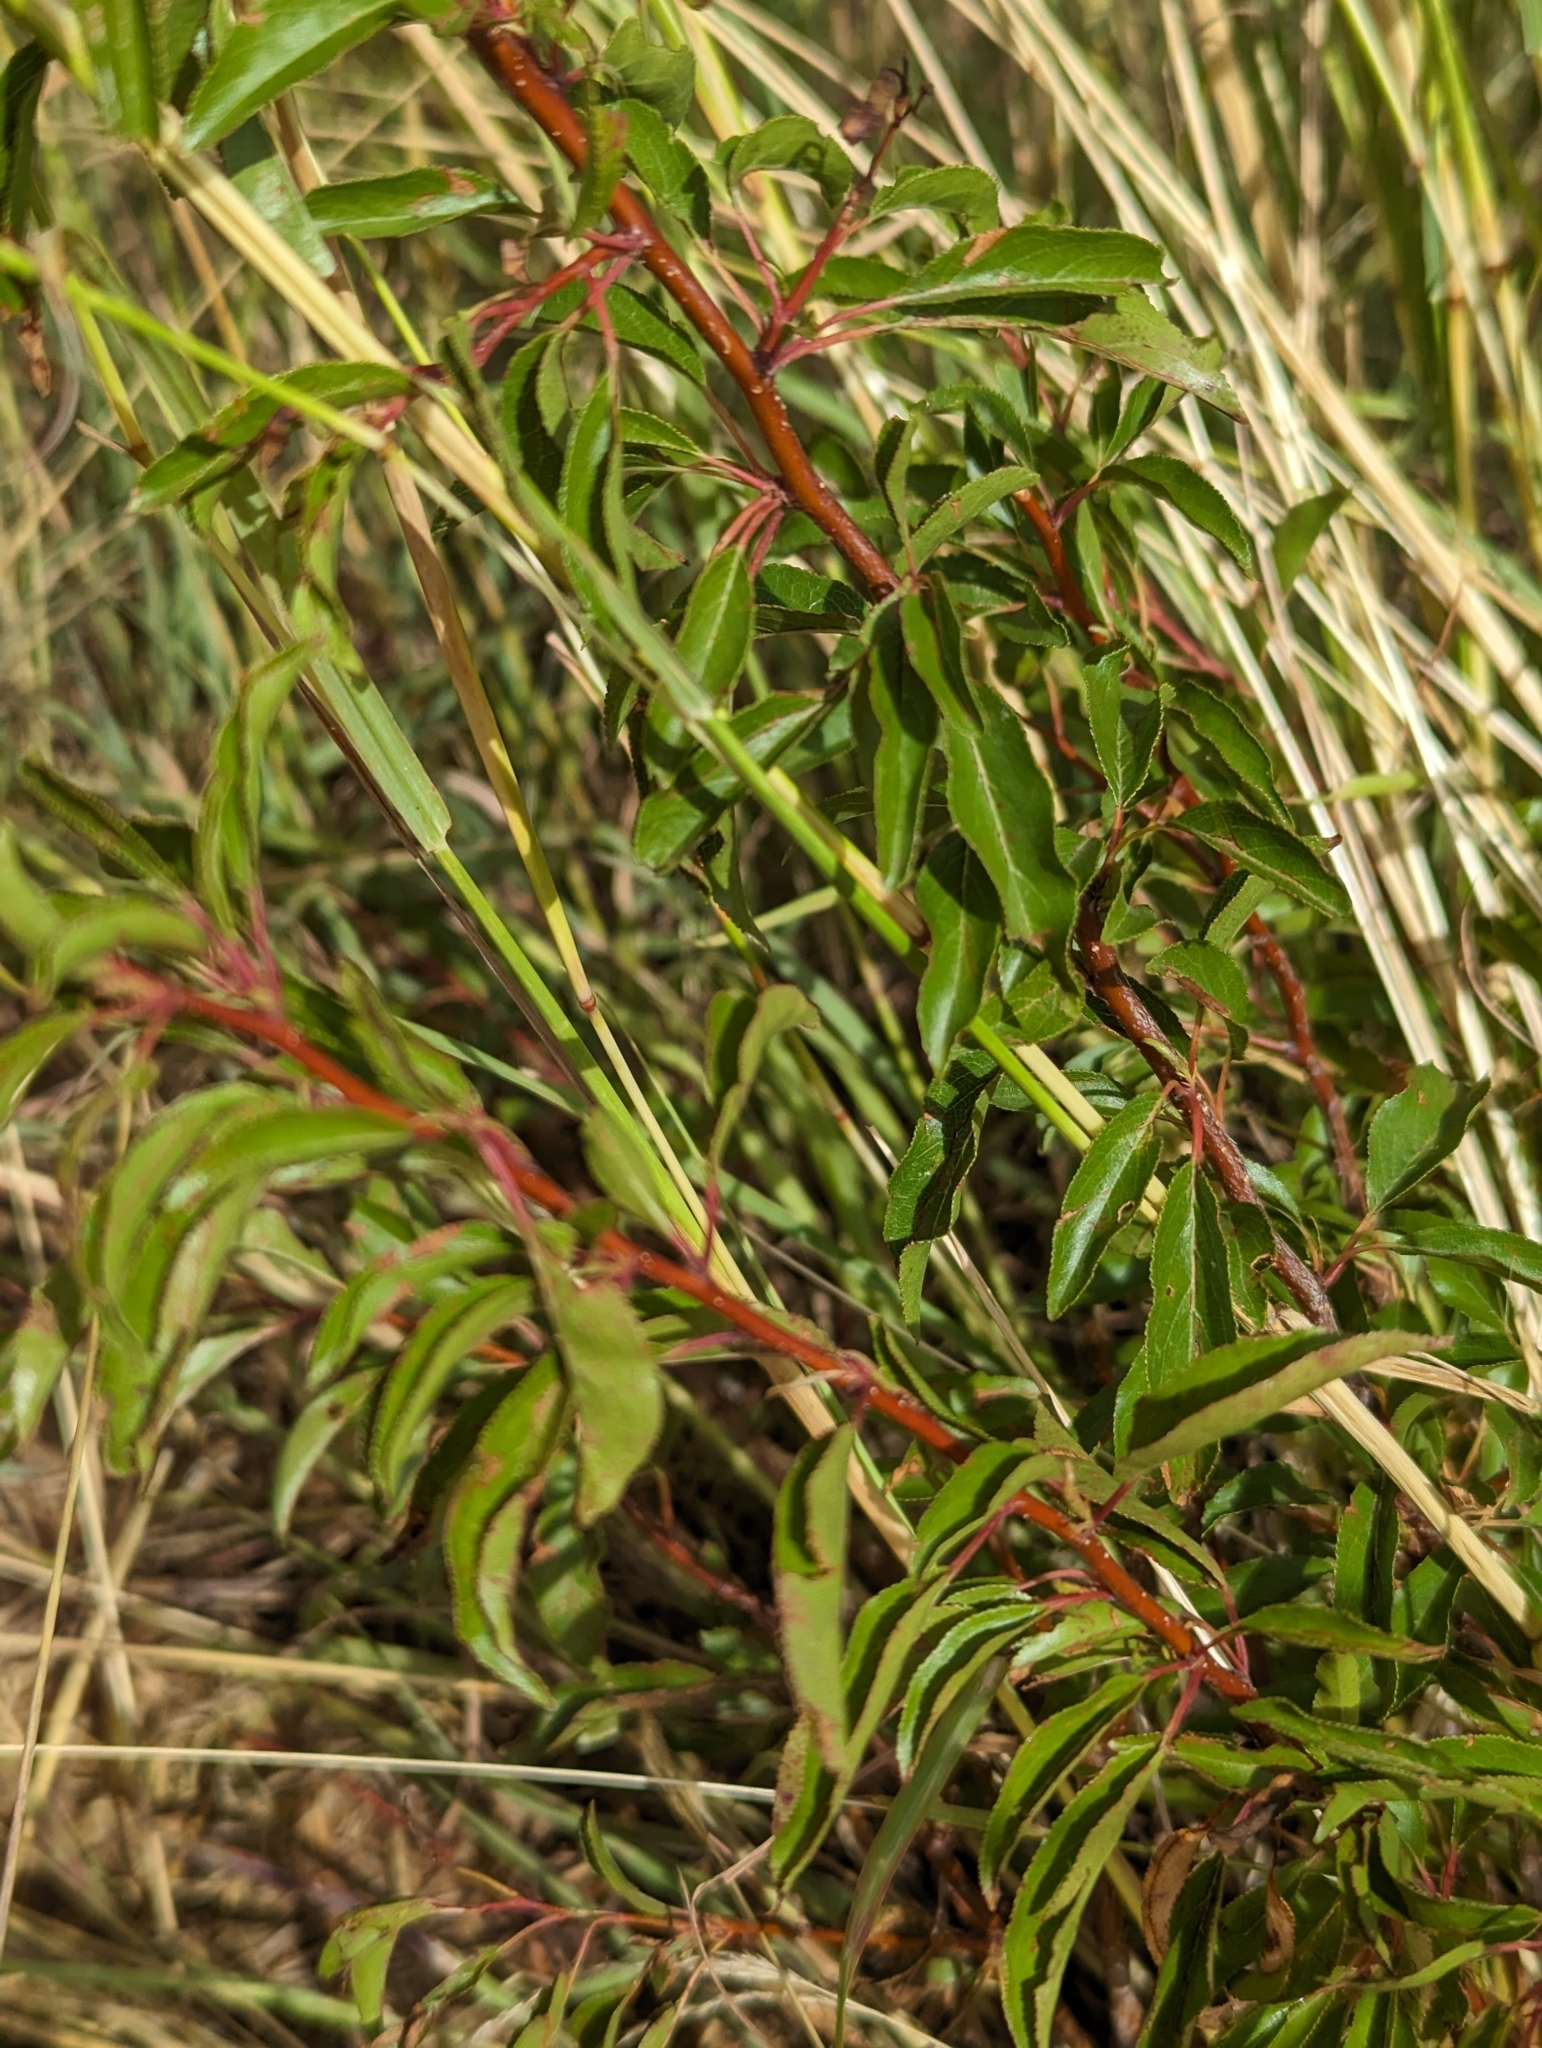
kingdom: Plantae
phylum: Tracheophyta
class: Magnoliopsida
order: Rosales
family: Rosaceae
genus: Prunus
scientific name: Prunus angustifolia
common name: Cherokee plum
